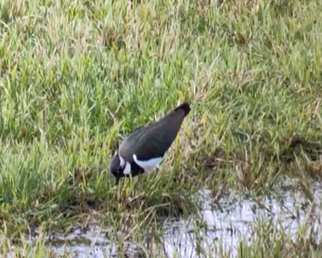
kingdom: Animalia
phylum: Chordata
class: Aves
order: Charadriiformes
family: Charadriidae
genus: Vanellus
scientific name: Vanellus vanellus
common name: Northern lapwing
